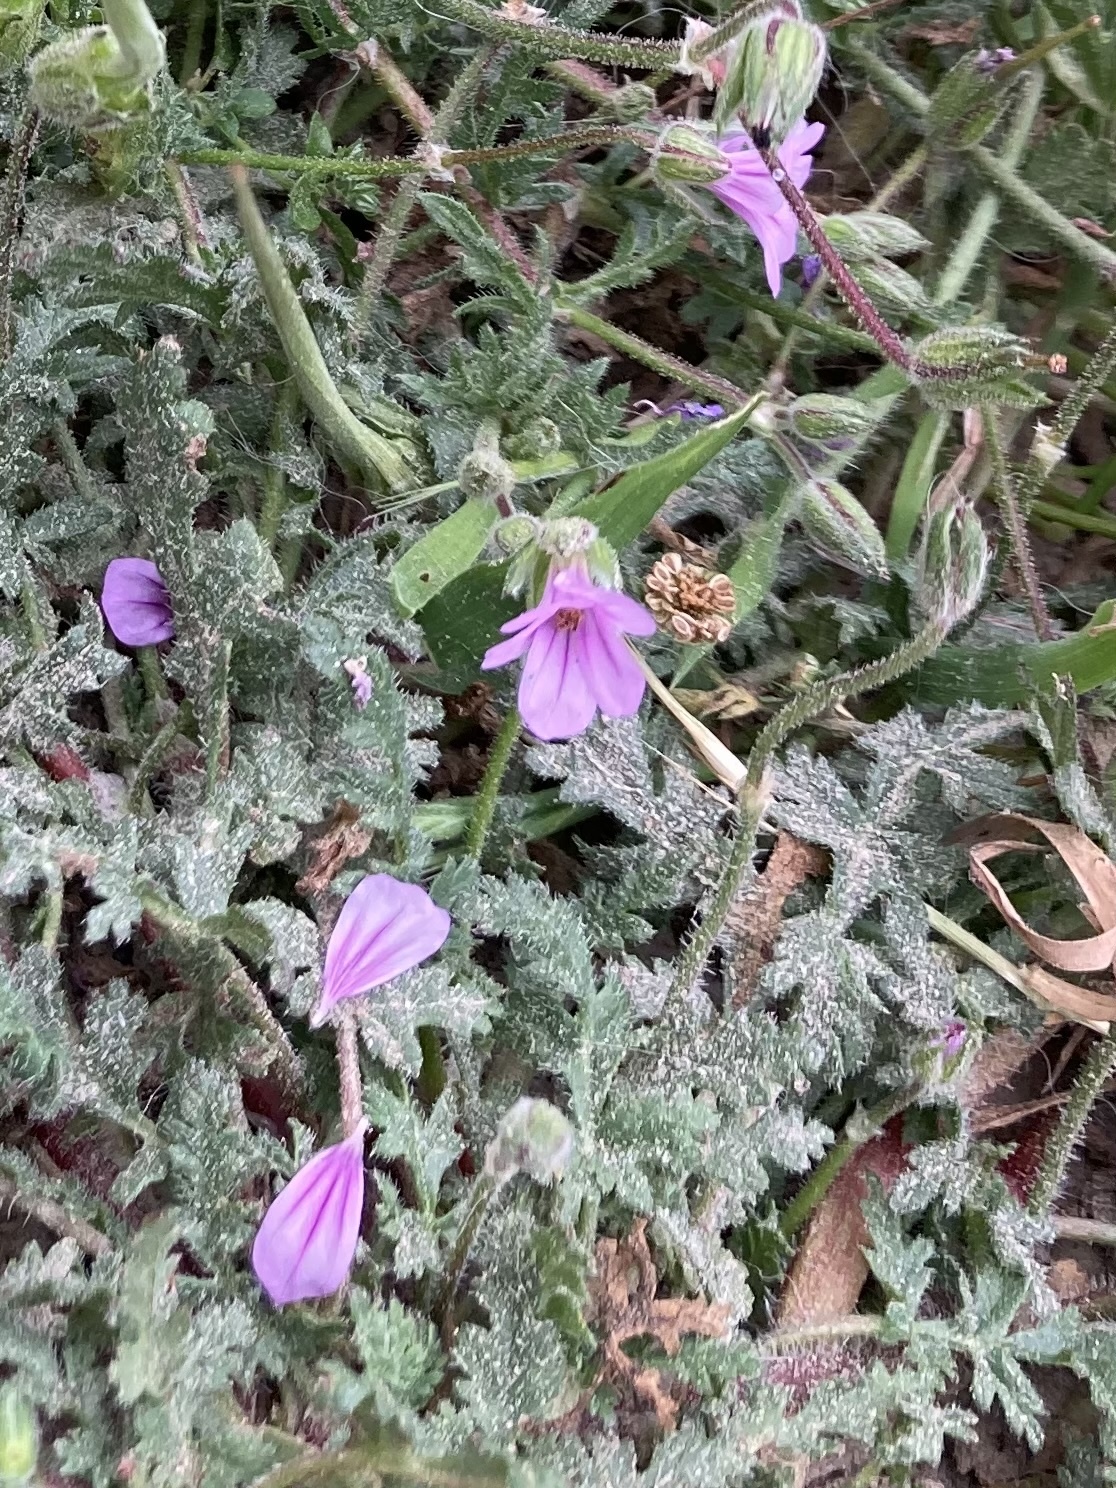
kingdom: Plantae
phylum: Tracheophyta
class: Magnoliopsida
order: Geraniales
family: Geraniaceae
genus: Erodium
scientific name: Erodium botrys
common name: Mediterranean stork's-bill
